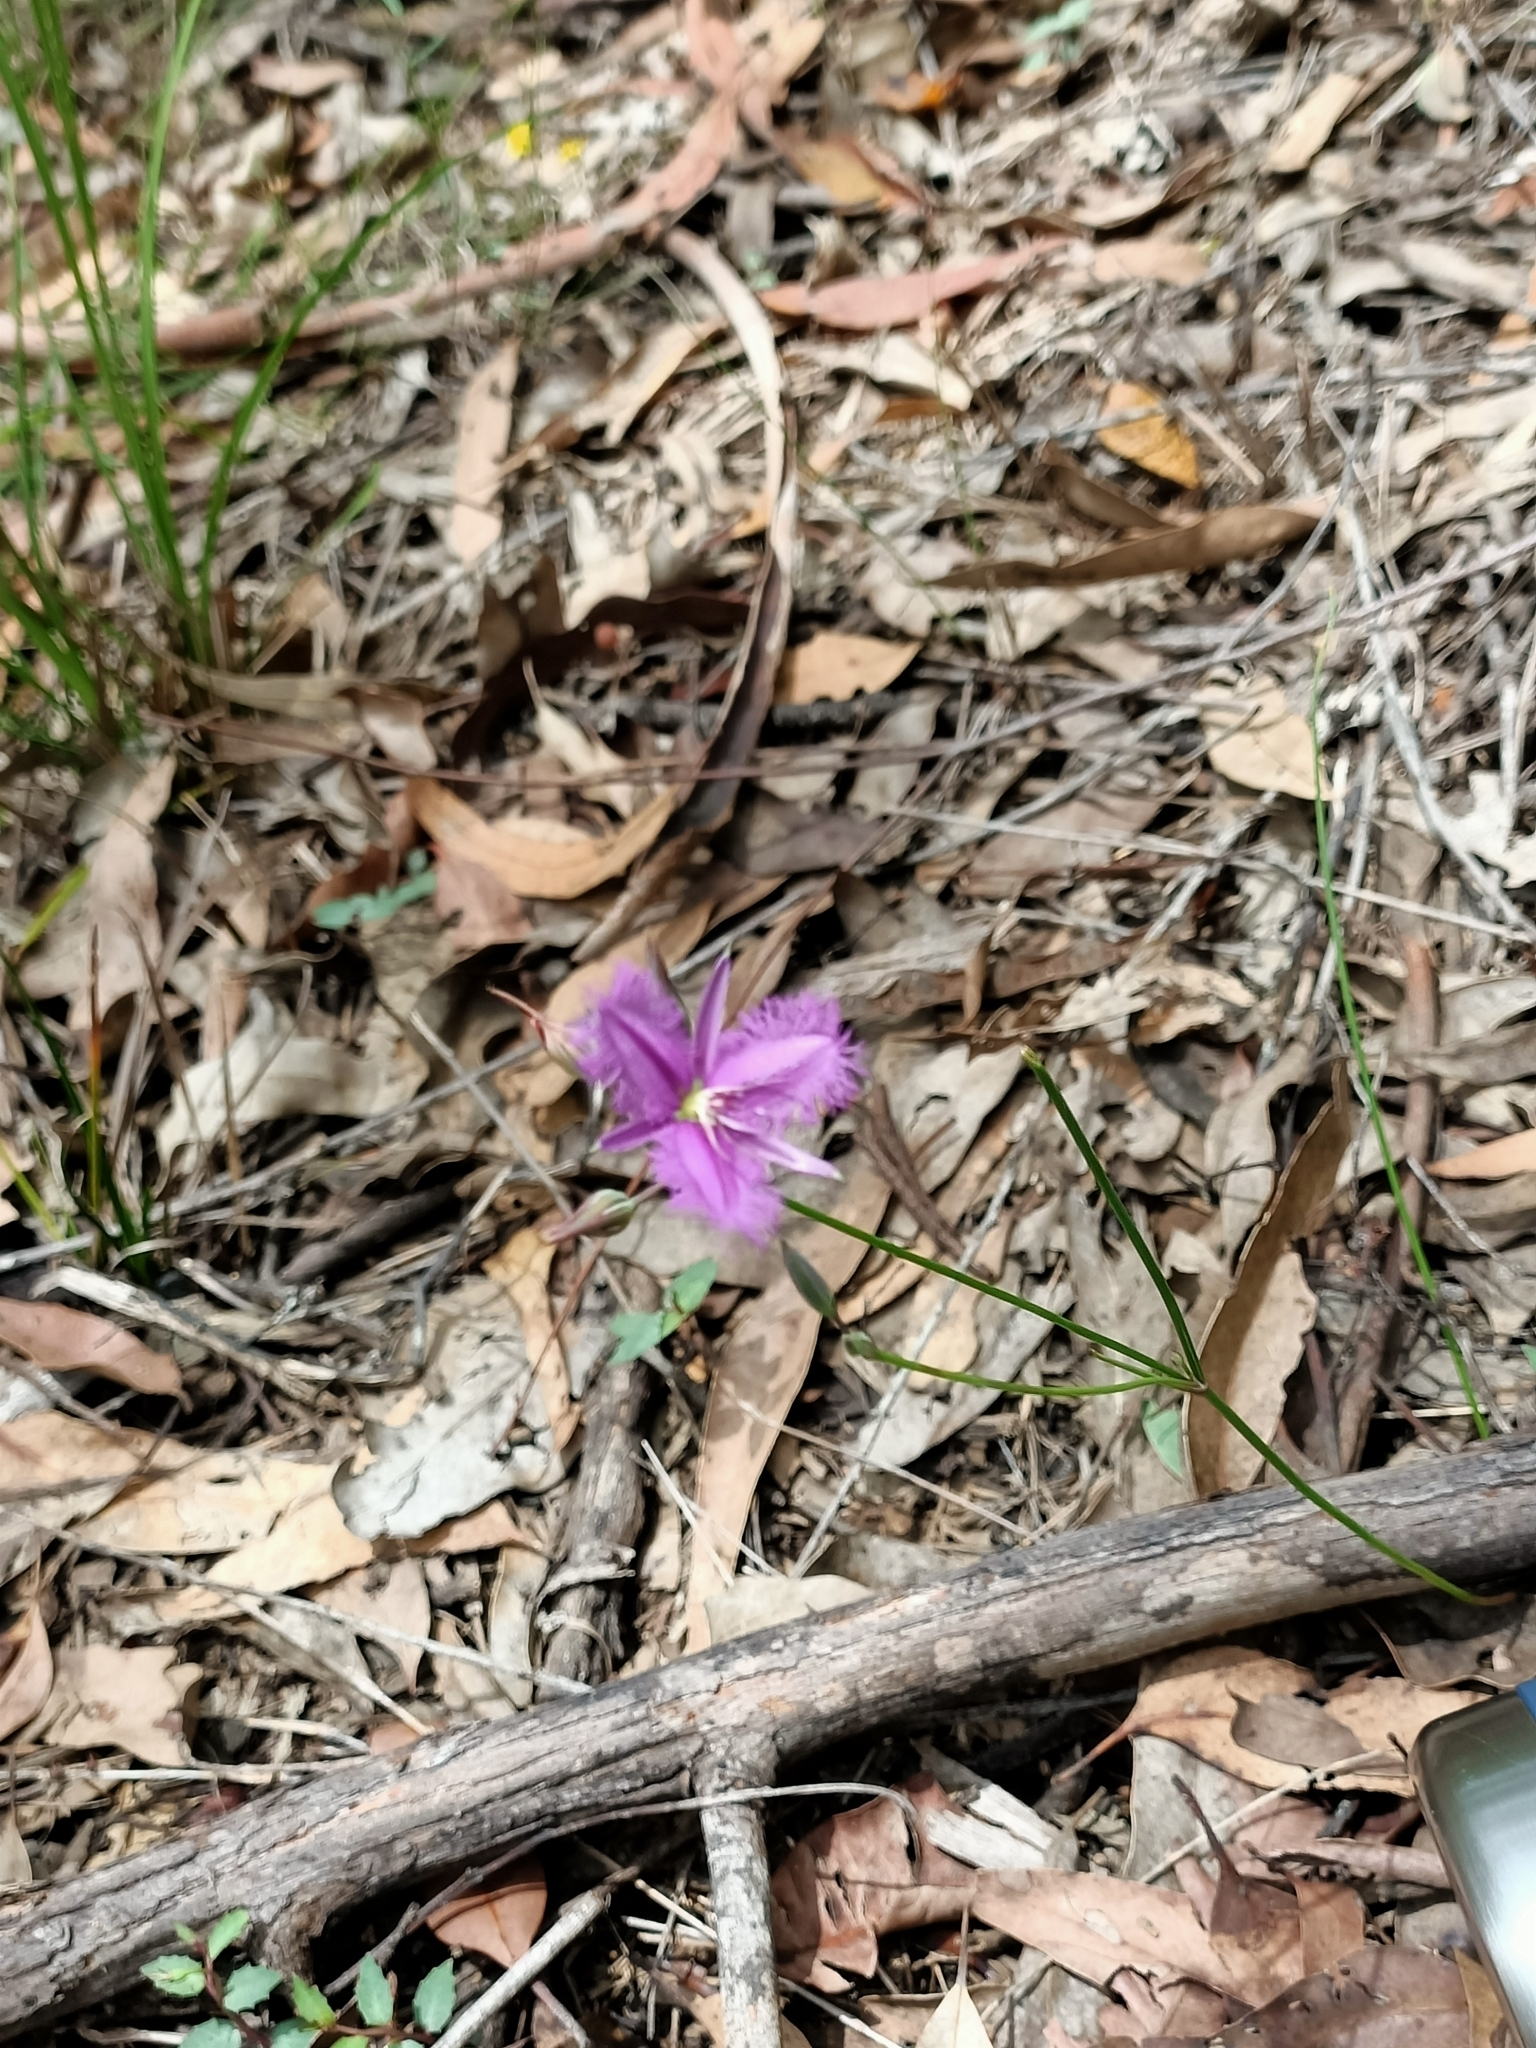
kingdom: Plantae
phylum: Tracheophyta
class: Liliopsida
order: Asparagales
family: Asparagaceae
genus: Thysanotus
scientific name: Thysanotus tuberosus
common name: Common fringed-lily
